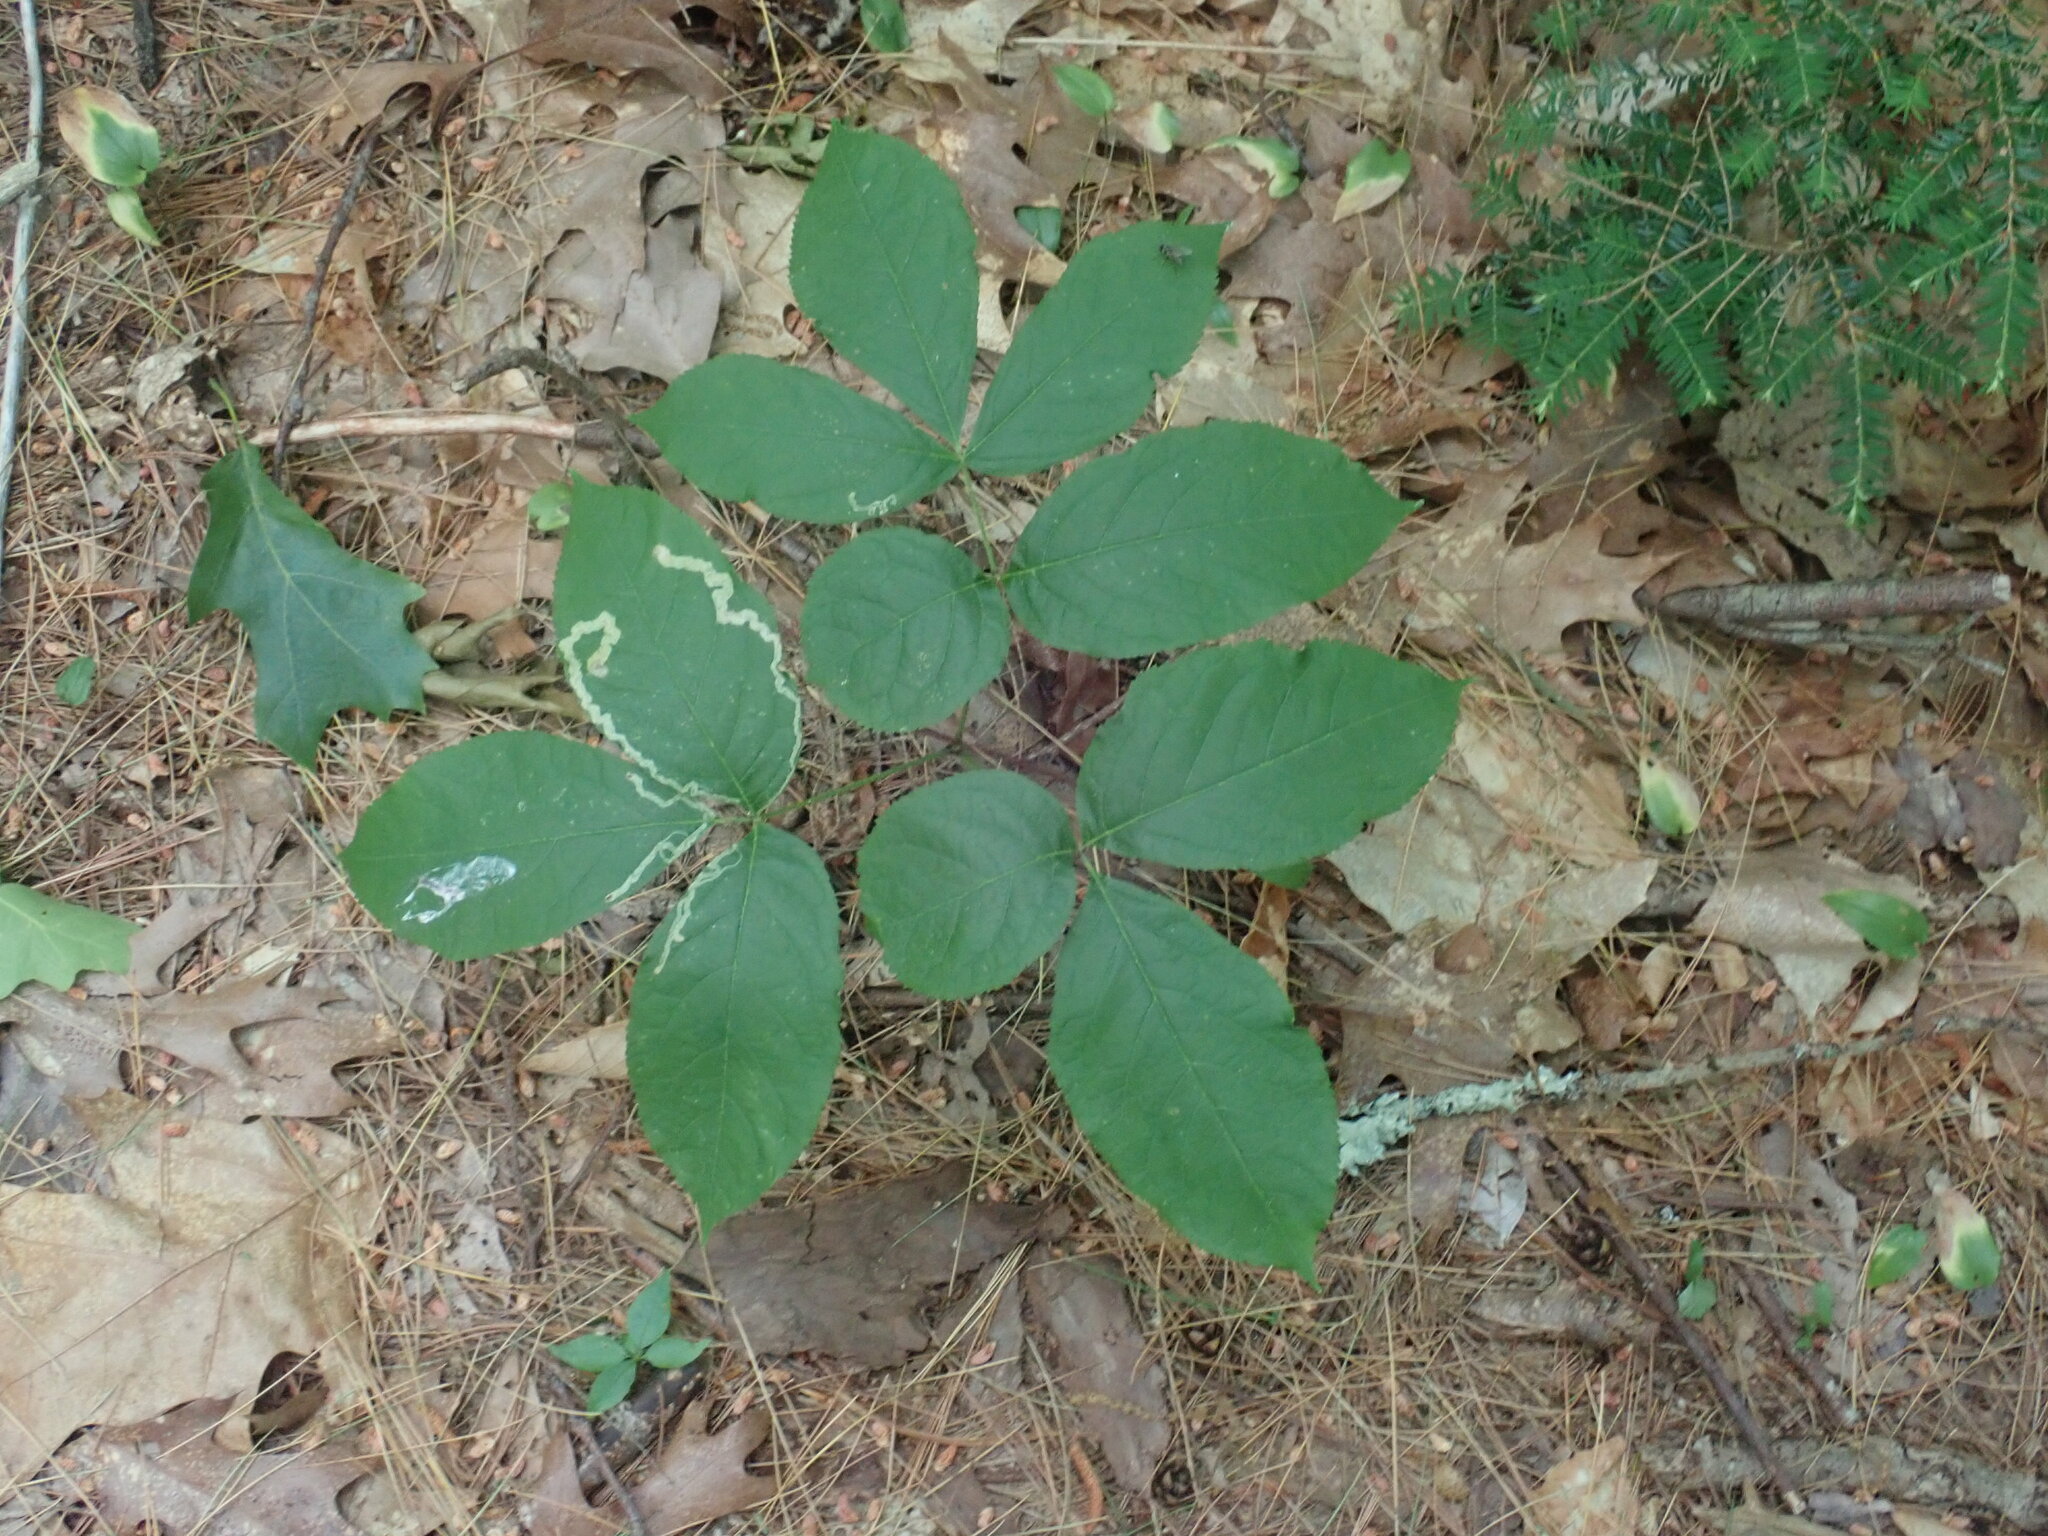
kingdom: Plantae
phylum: Tracheophyta
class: Magnoliopsida
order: Apiales
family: Araliaceae
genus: Aralia
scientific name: Aralia nudicaulis
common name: Wild sarsaparilla
